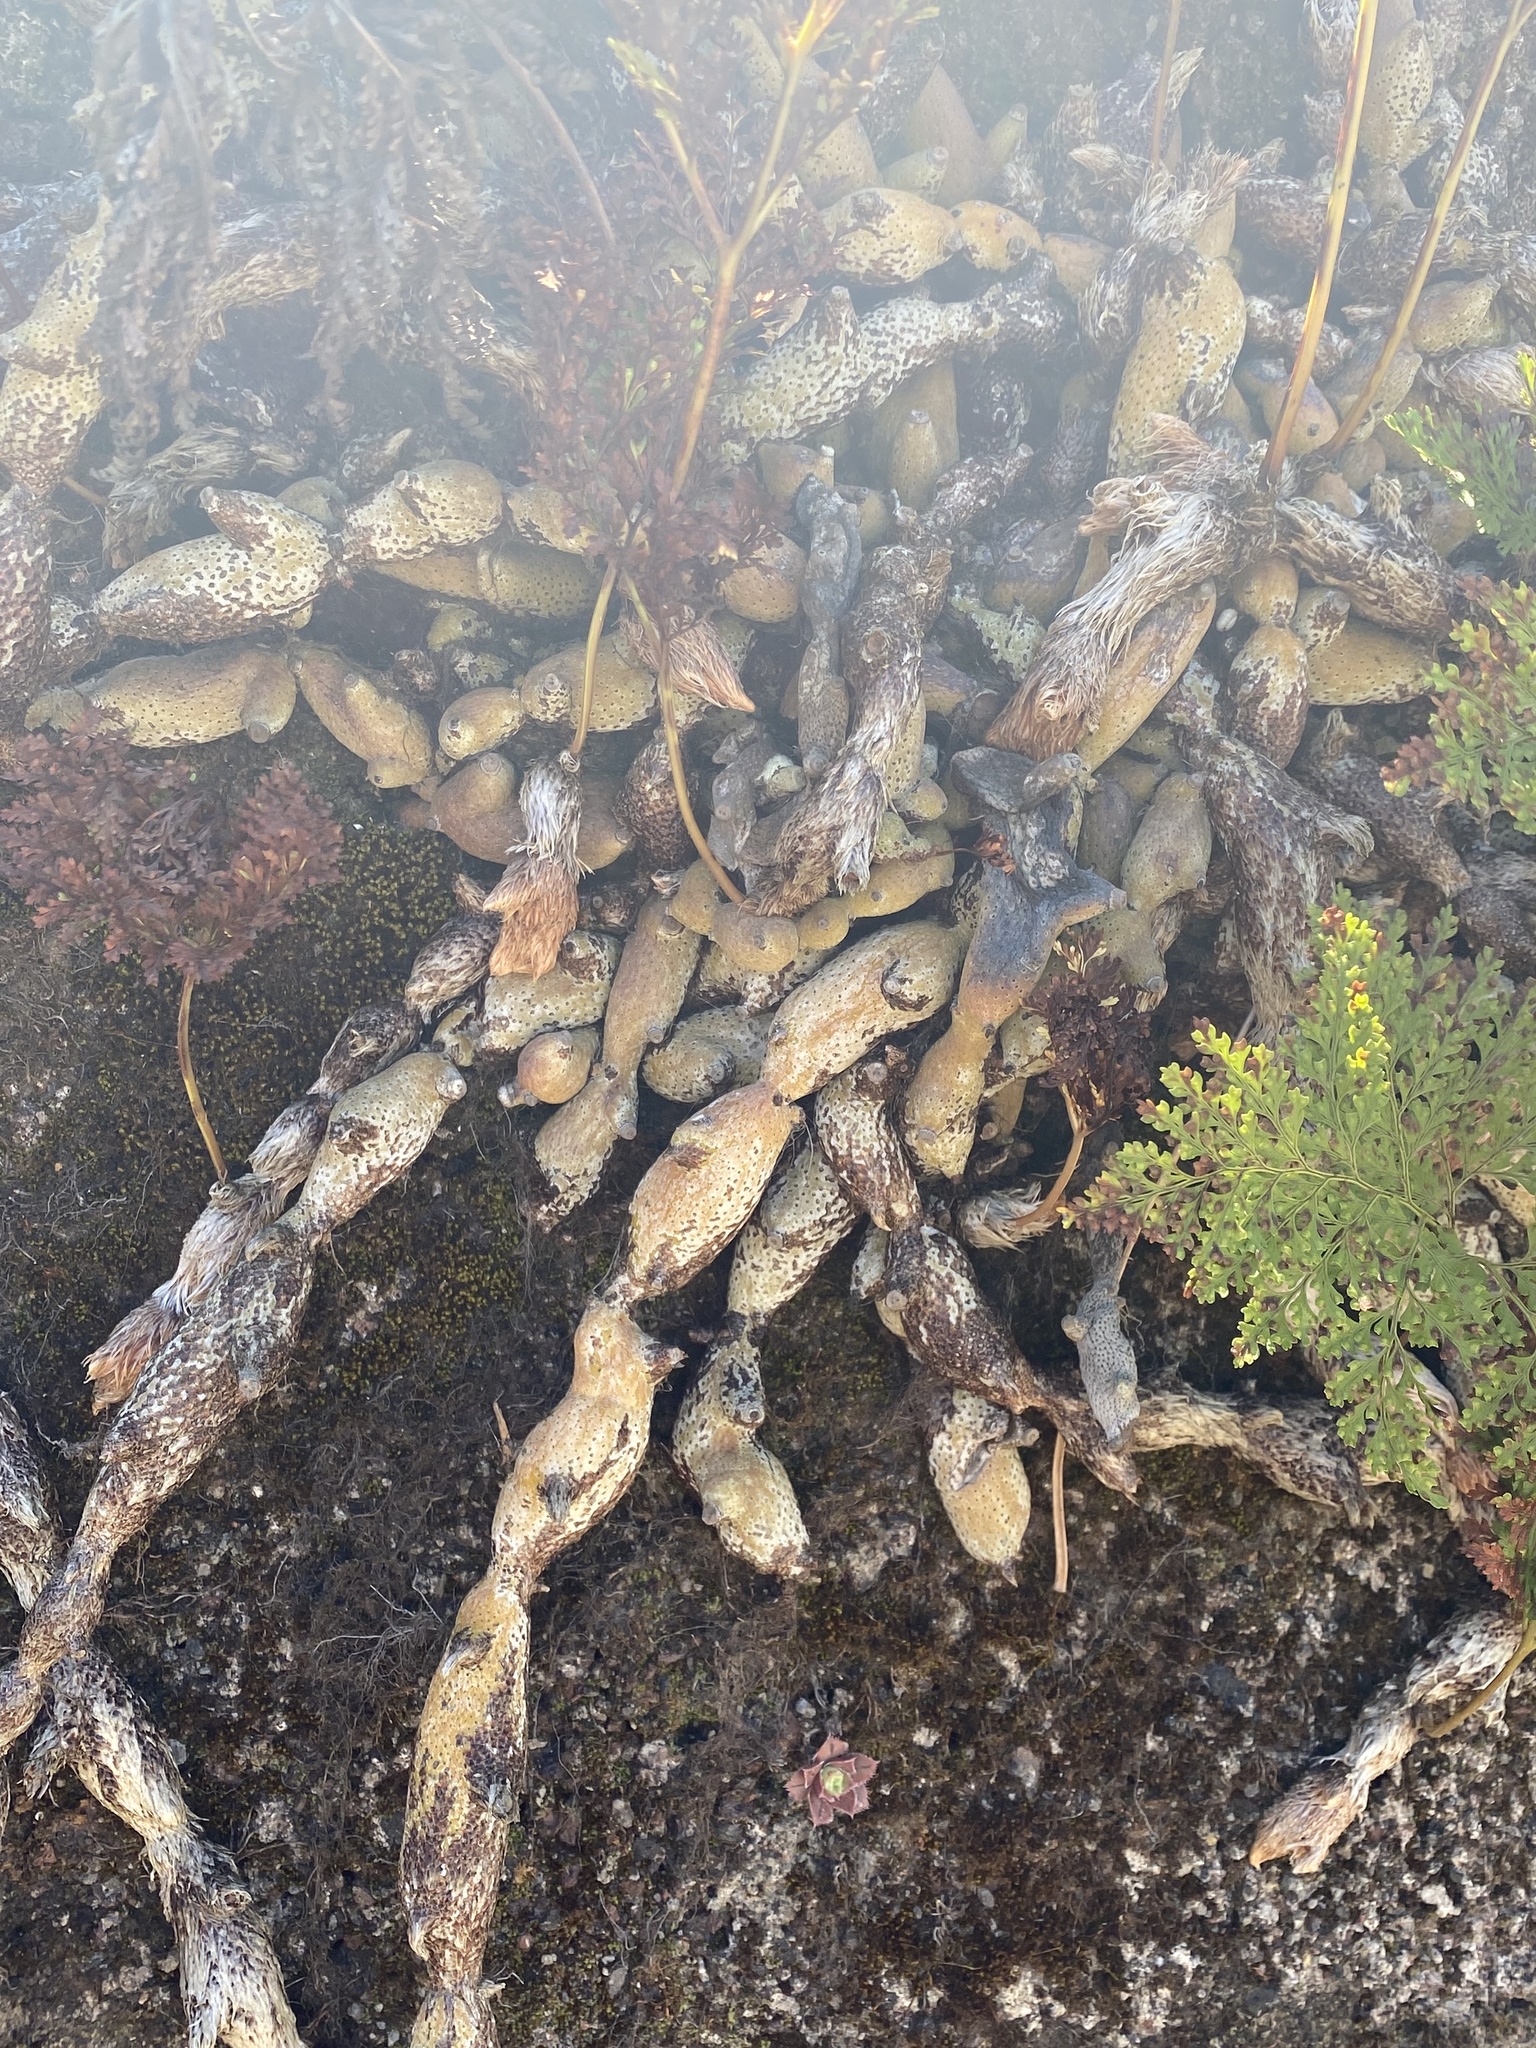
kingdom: Plantae
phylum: Tracheophyta
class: Polypodiopsida
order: Polypodiales
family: Davalliaceae
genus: Davallia
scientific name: Davallia canariensis
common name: Hare's-foot fern
